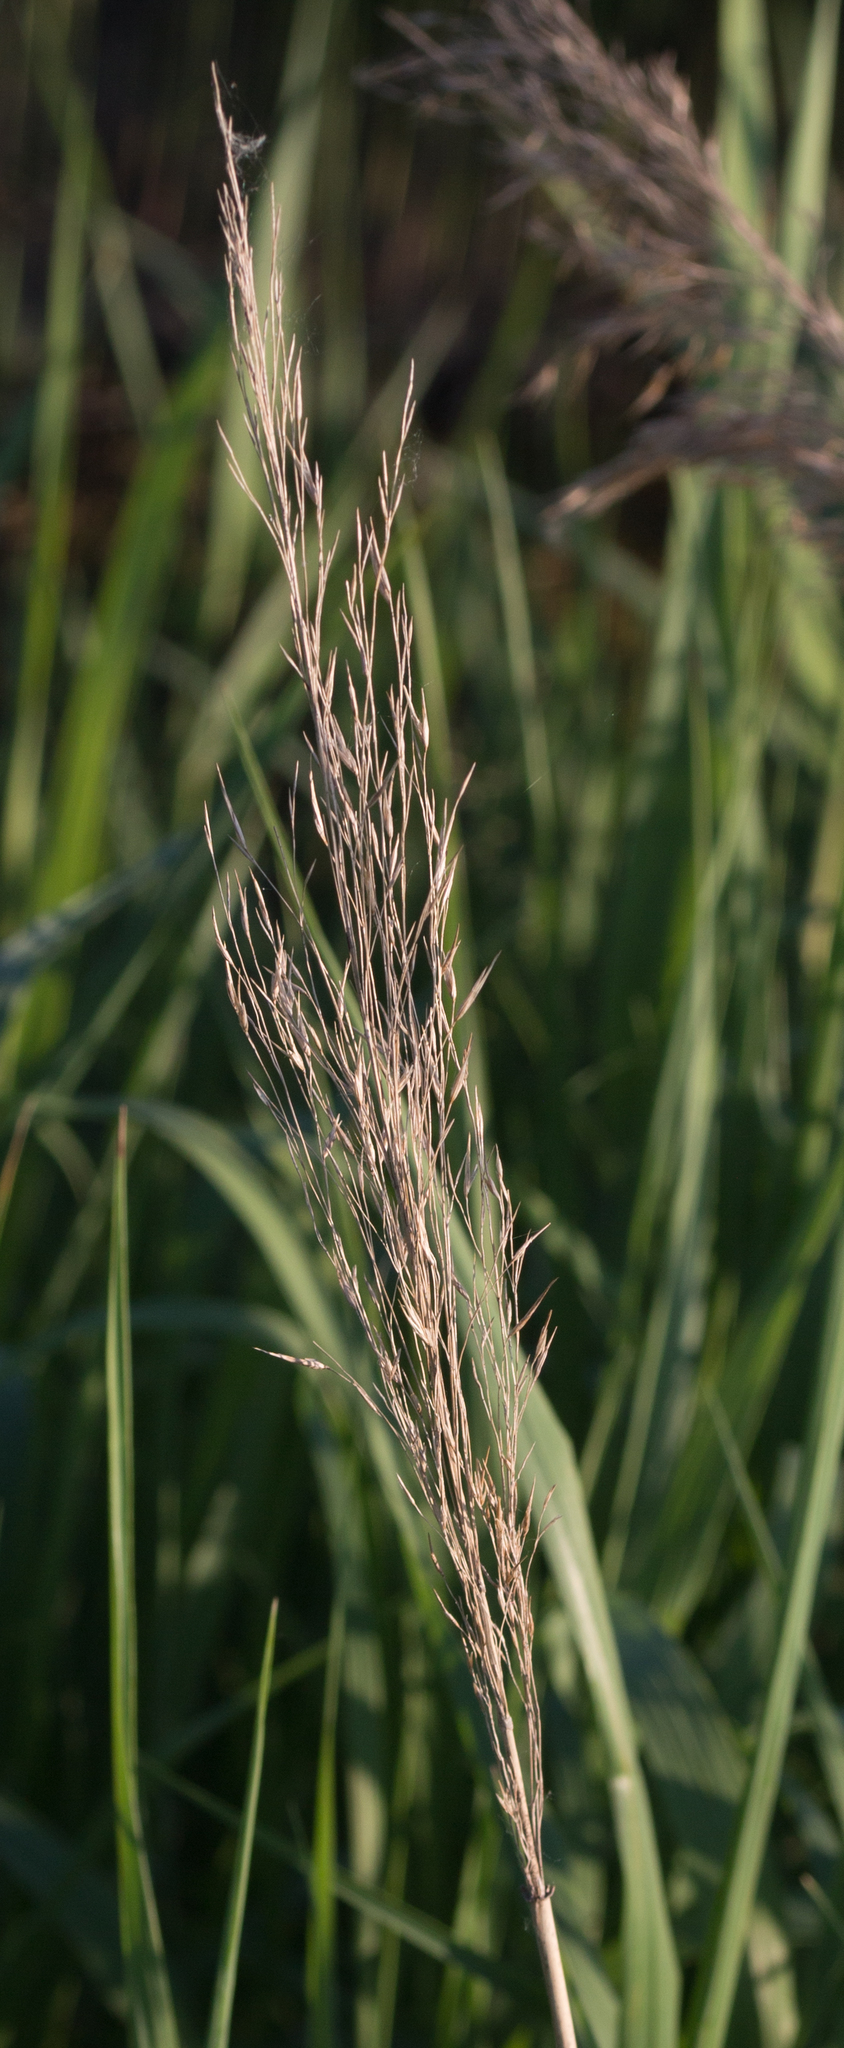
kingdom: Plantae
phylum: Tracheophyta
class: Liliopsida
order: Poales
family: Poaceae
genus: Phragmites
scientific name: Phragmites australis
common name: Common reed
